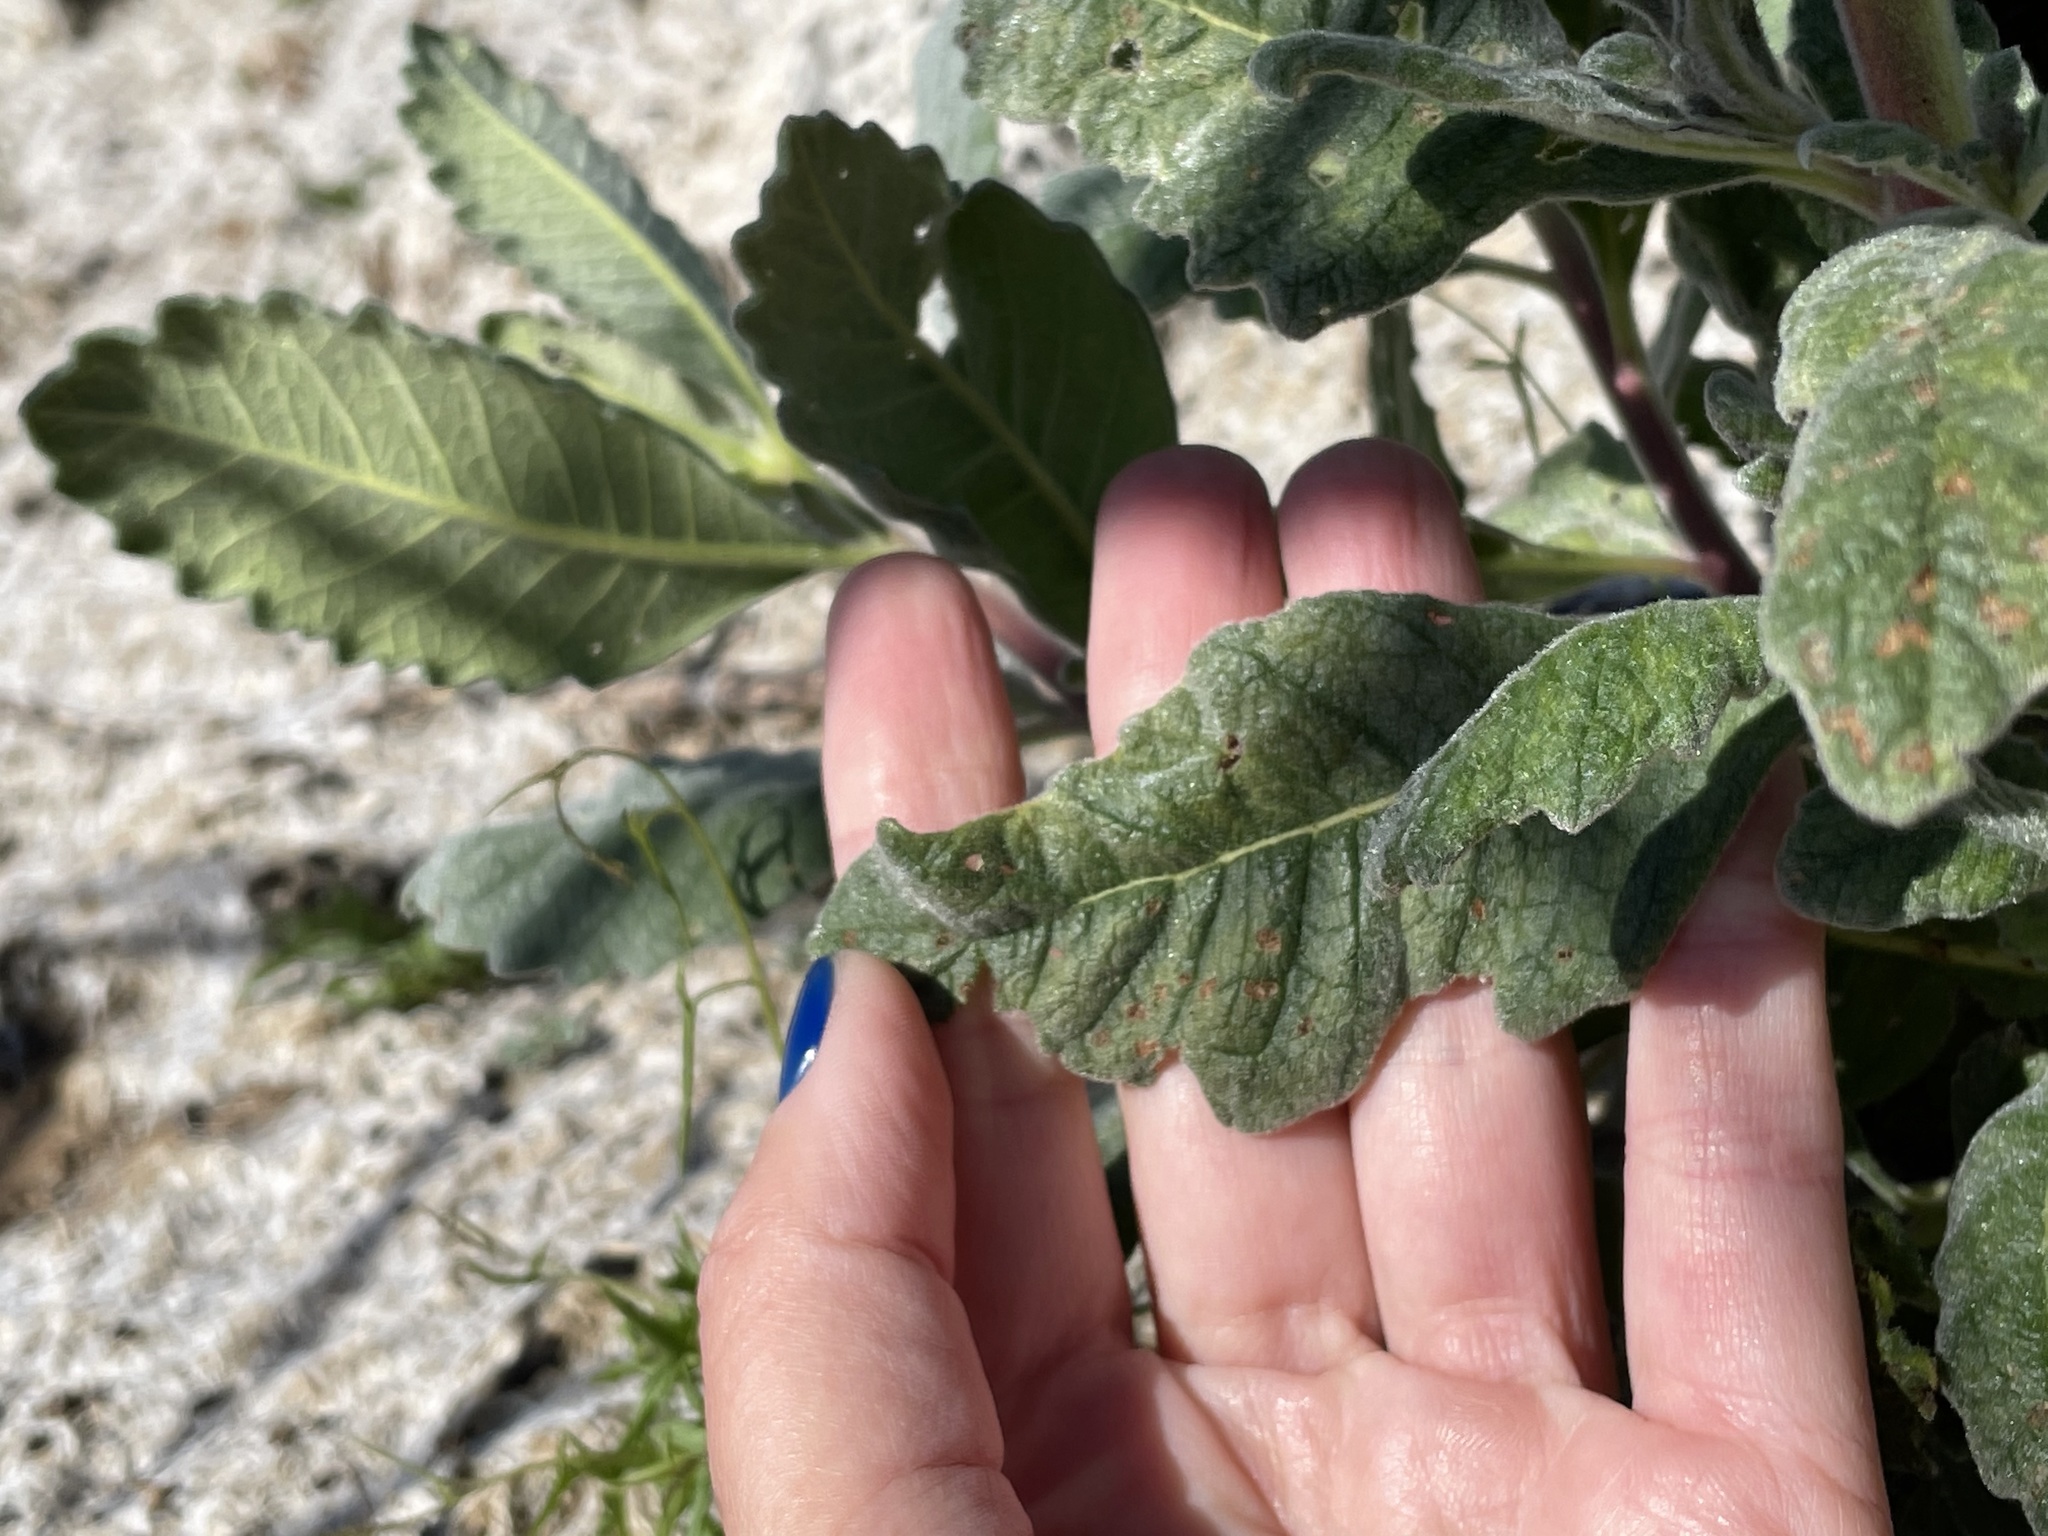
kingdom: Plantae
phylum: Tracheophyta
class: Magnoliopsida
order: Boraginales
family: Namaceae
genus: Eriodictyon
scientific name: Eriodictyon crassifolium
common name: Thick-leaf yerba-santa
